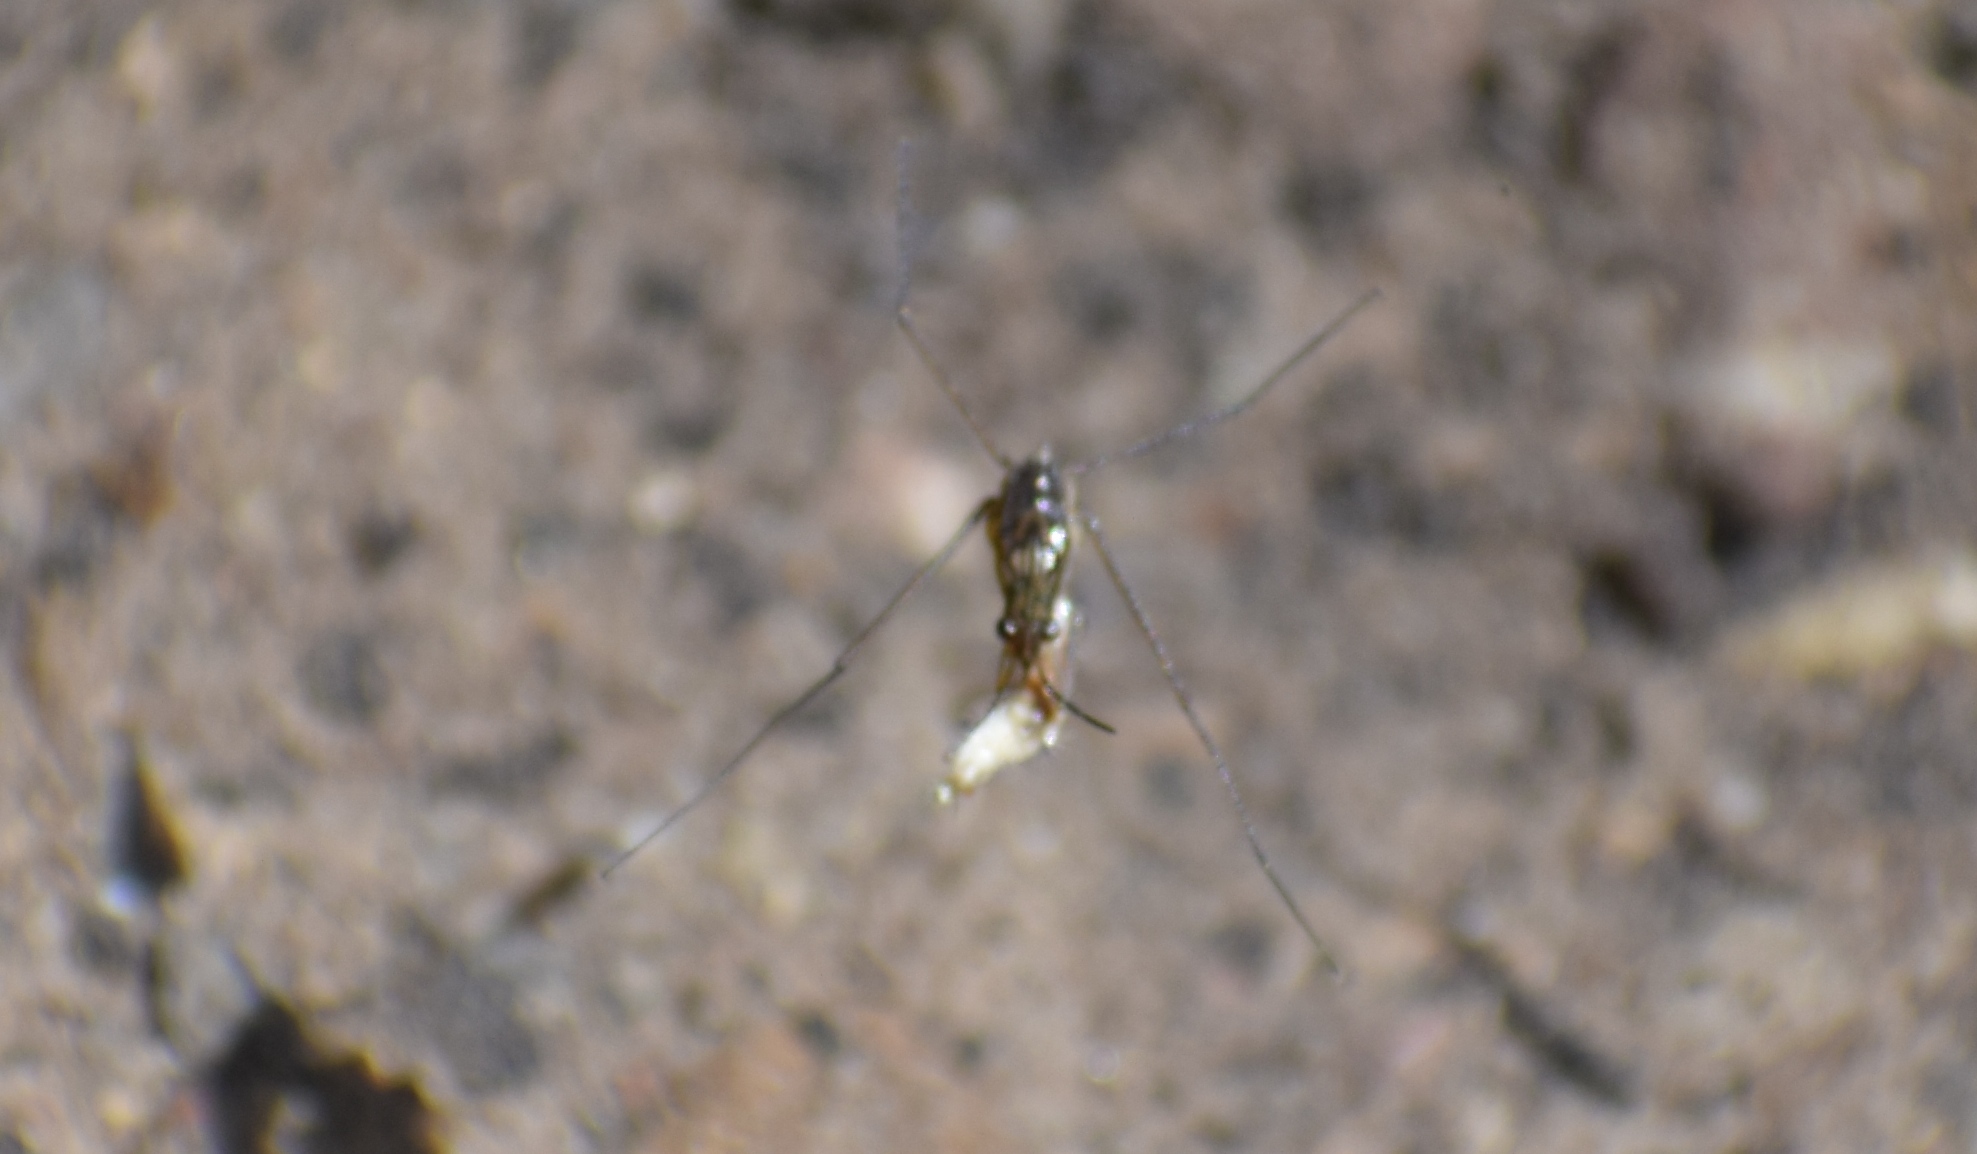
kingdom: Animalia
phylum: Arthropoda
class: Insecta
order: Hemiptera
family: Gerridae
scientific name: Gerridae
